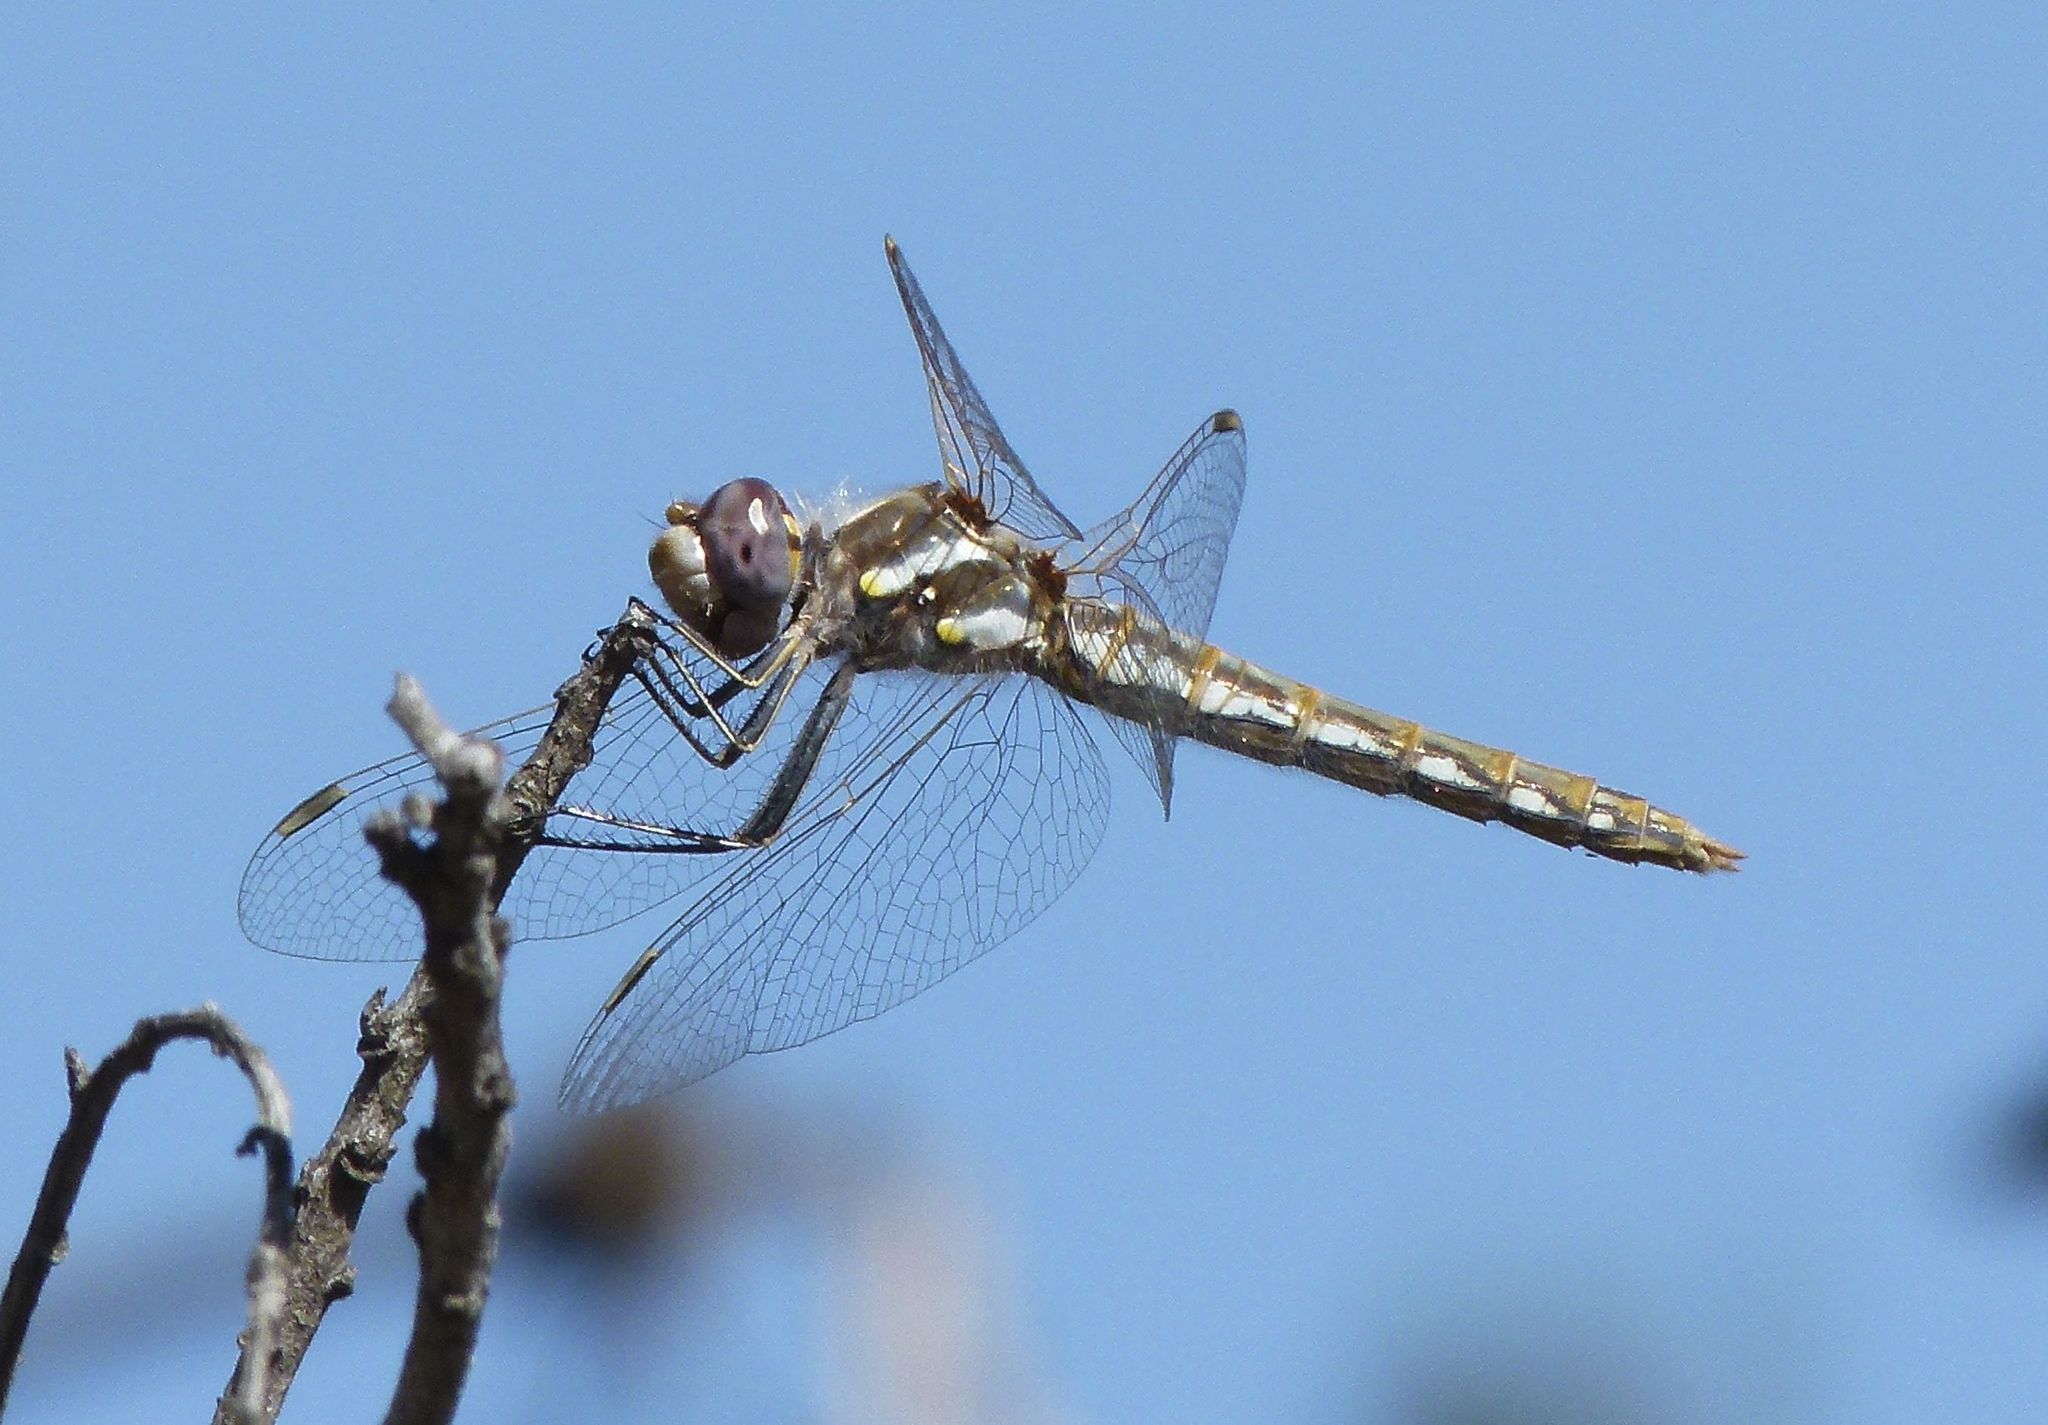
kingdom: Animalia
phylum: Arthropoda
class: Insecta
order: Odonata
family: Libellulidae
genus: Sympetrum
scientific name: Sympetrum corruptum
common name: Variegated meadowhawk
